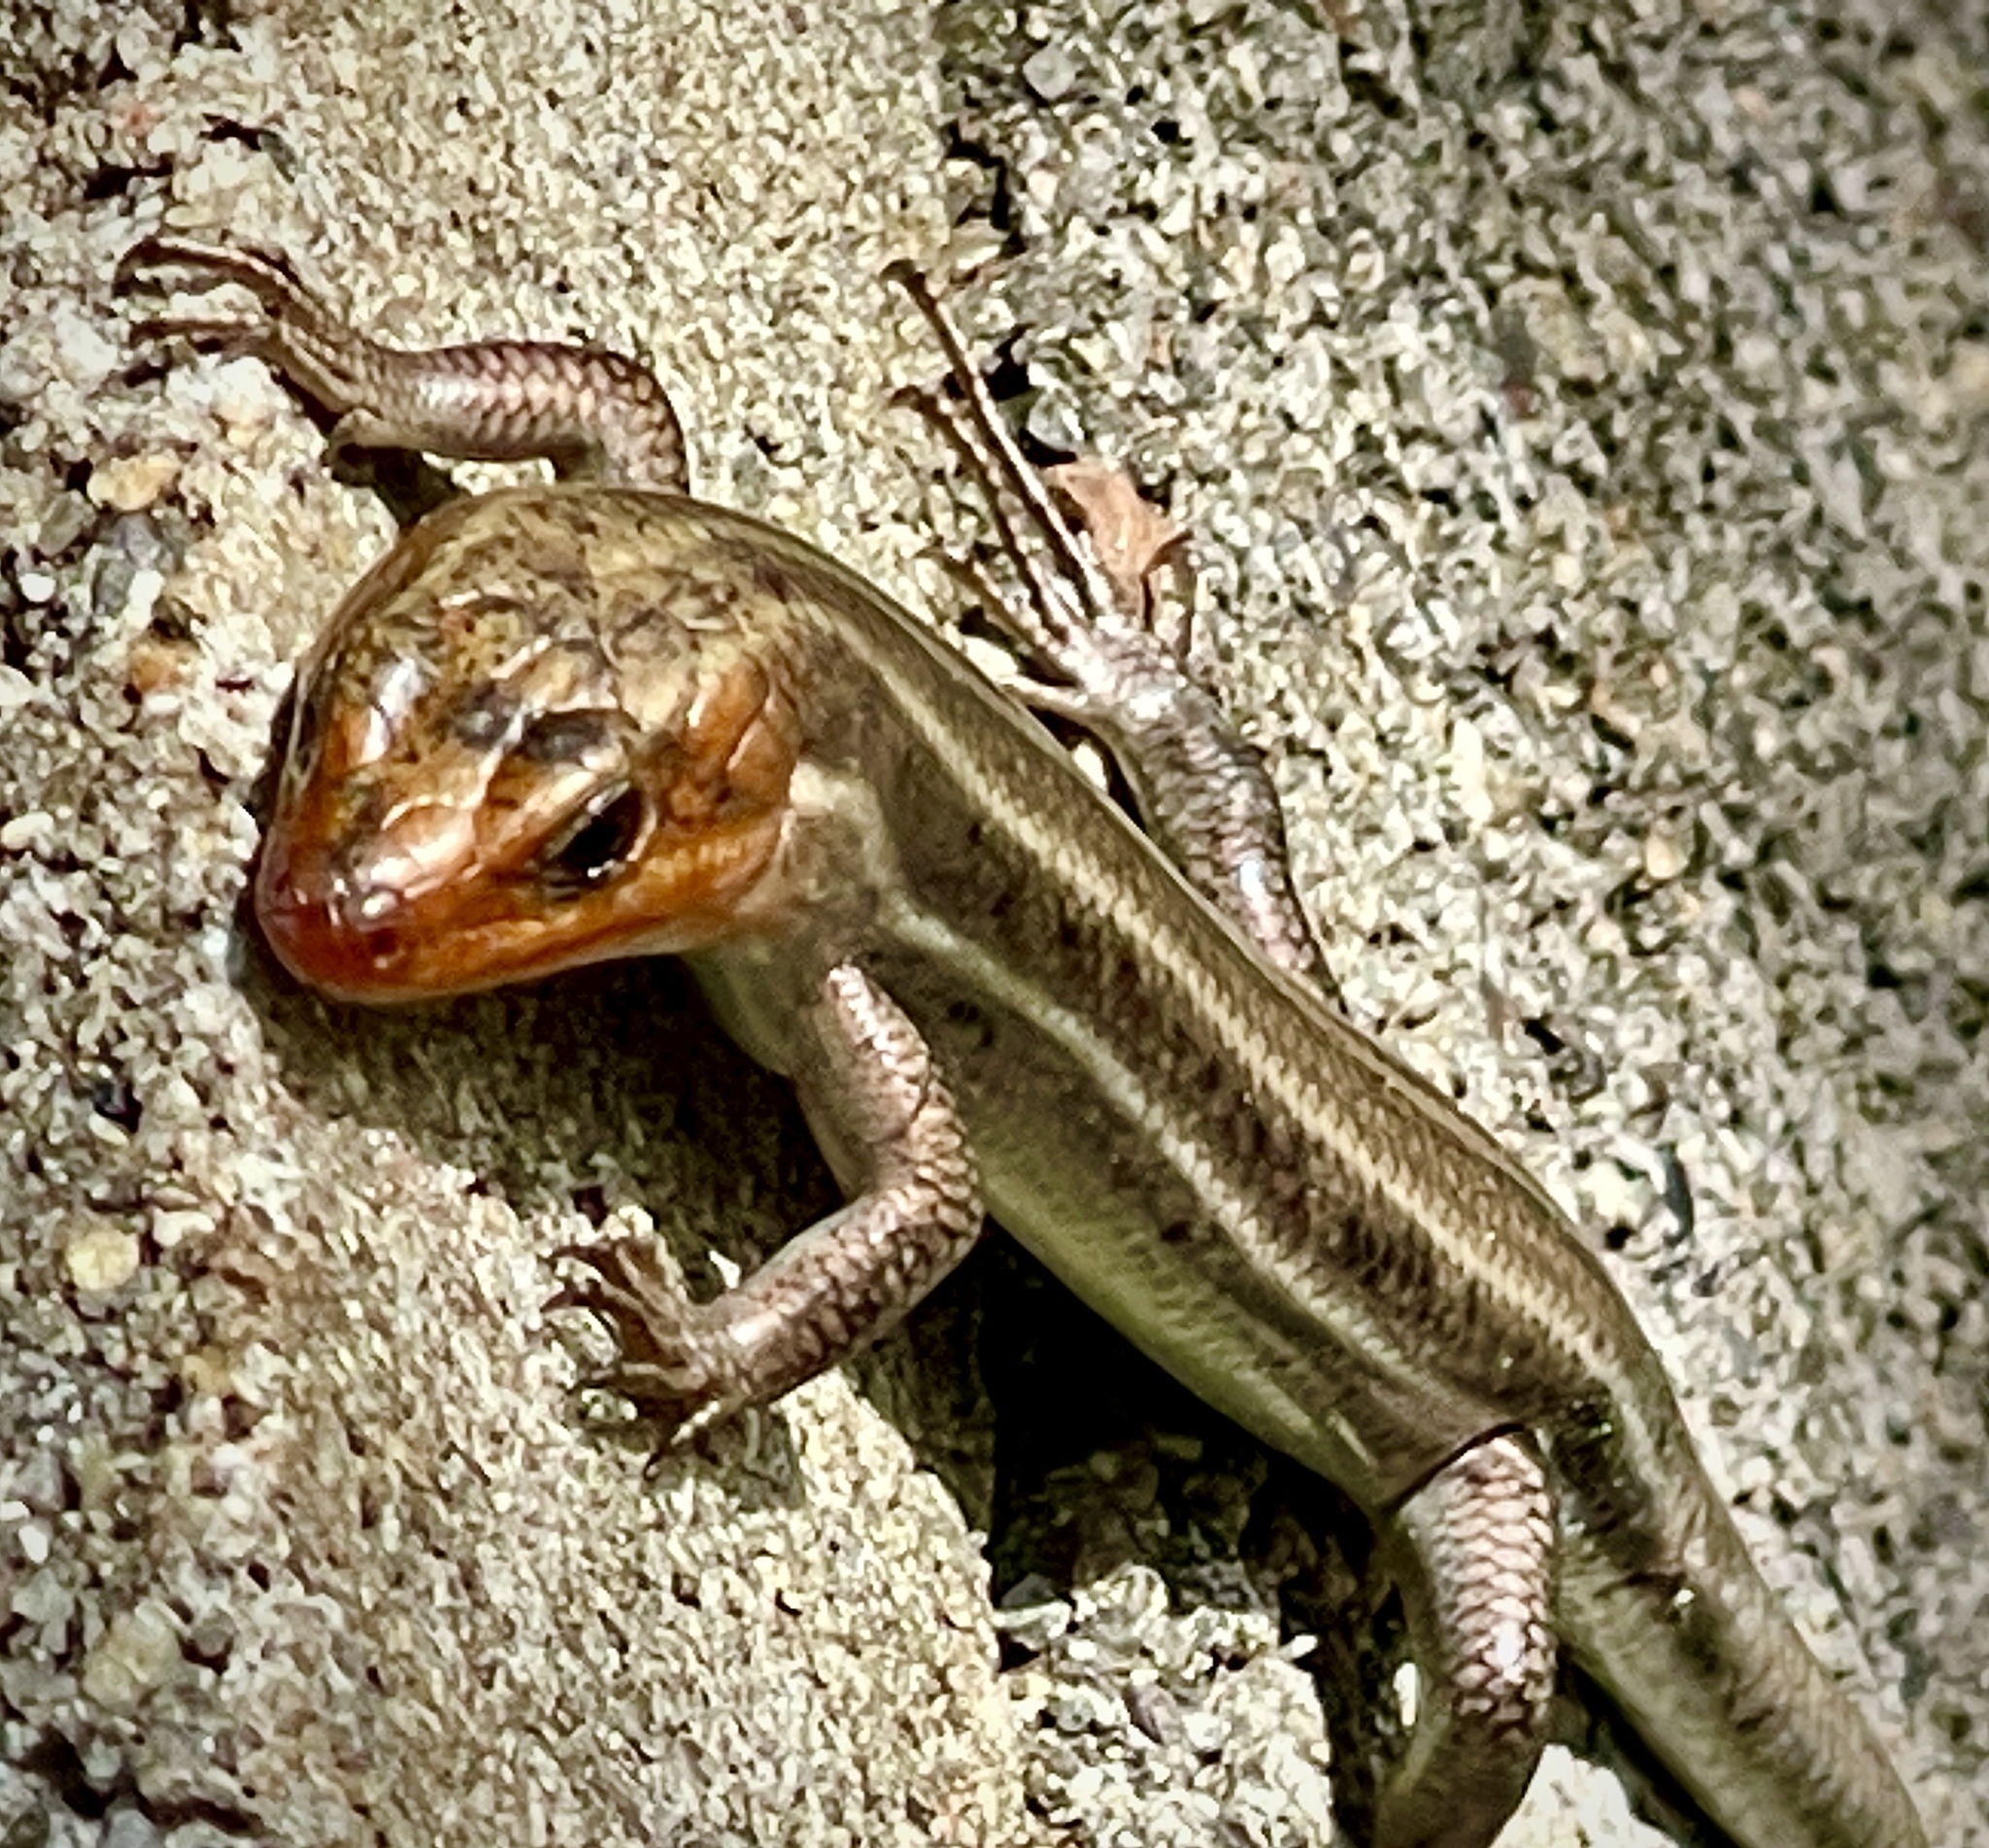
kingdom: Animalia
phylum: Chordata
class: Squamata
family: Scincidae
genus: Plestiodon
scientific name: Plestiodon fasciatus
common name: Five-lined skink
